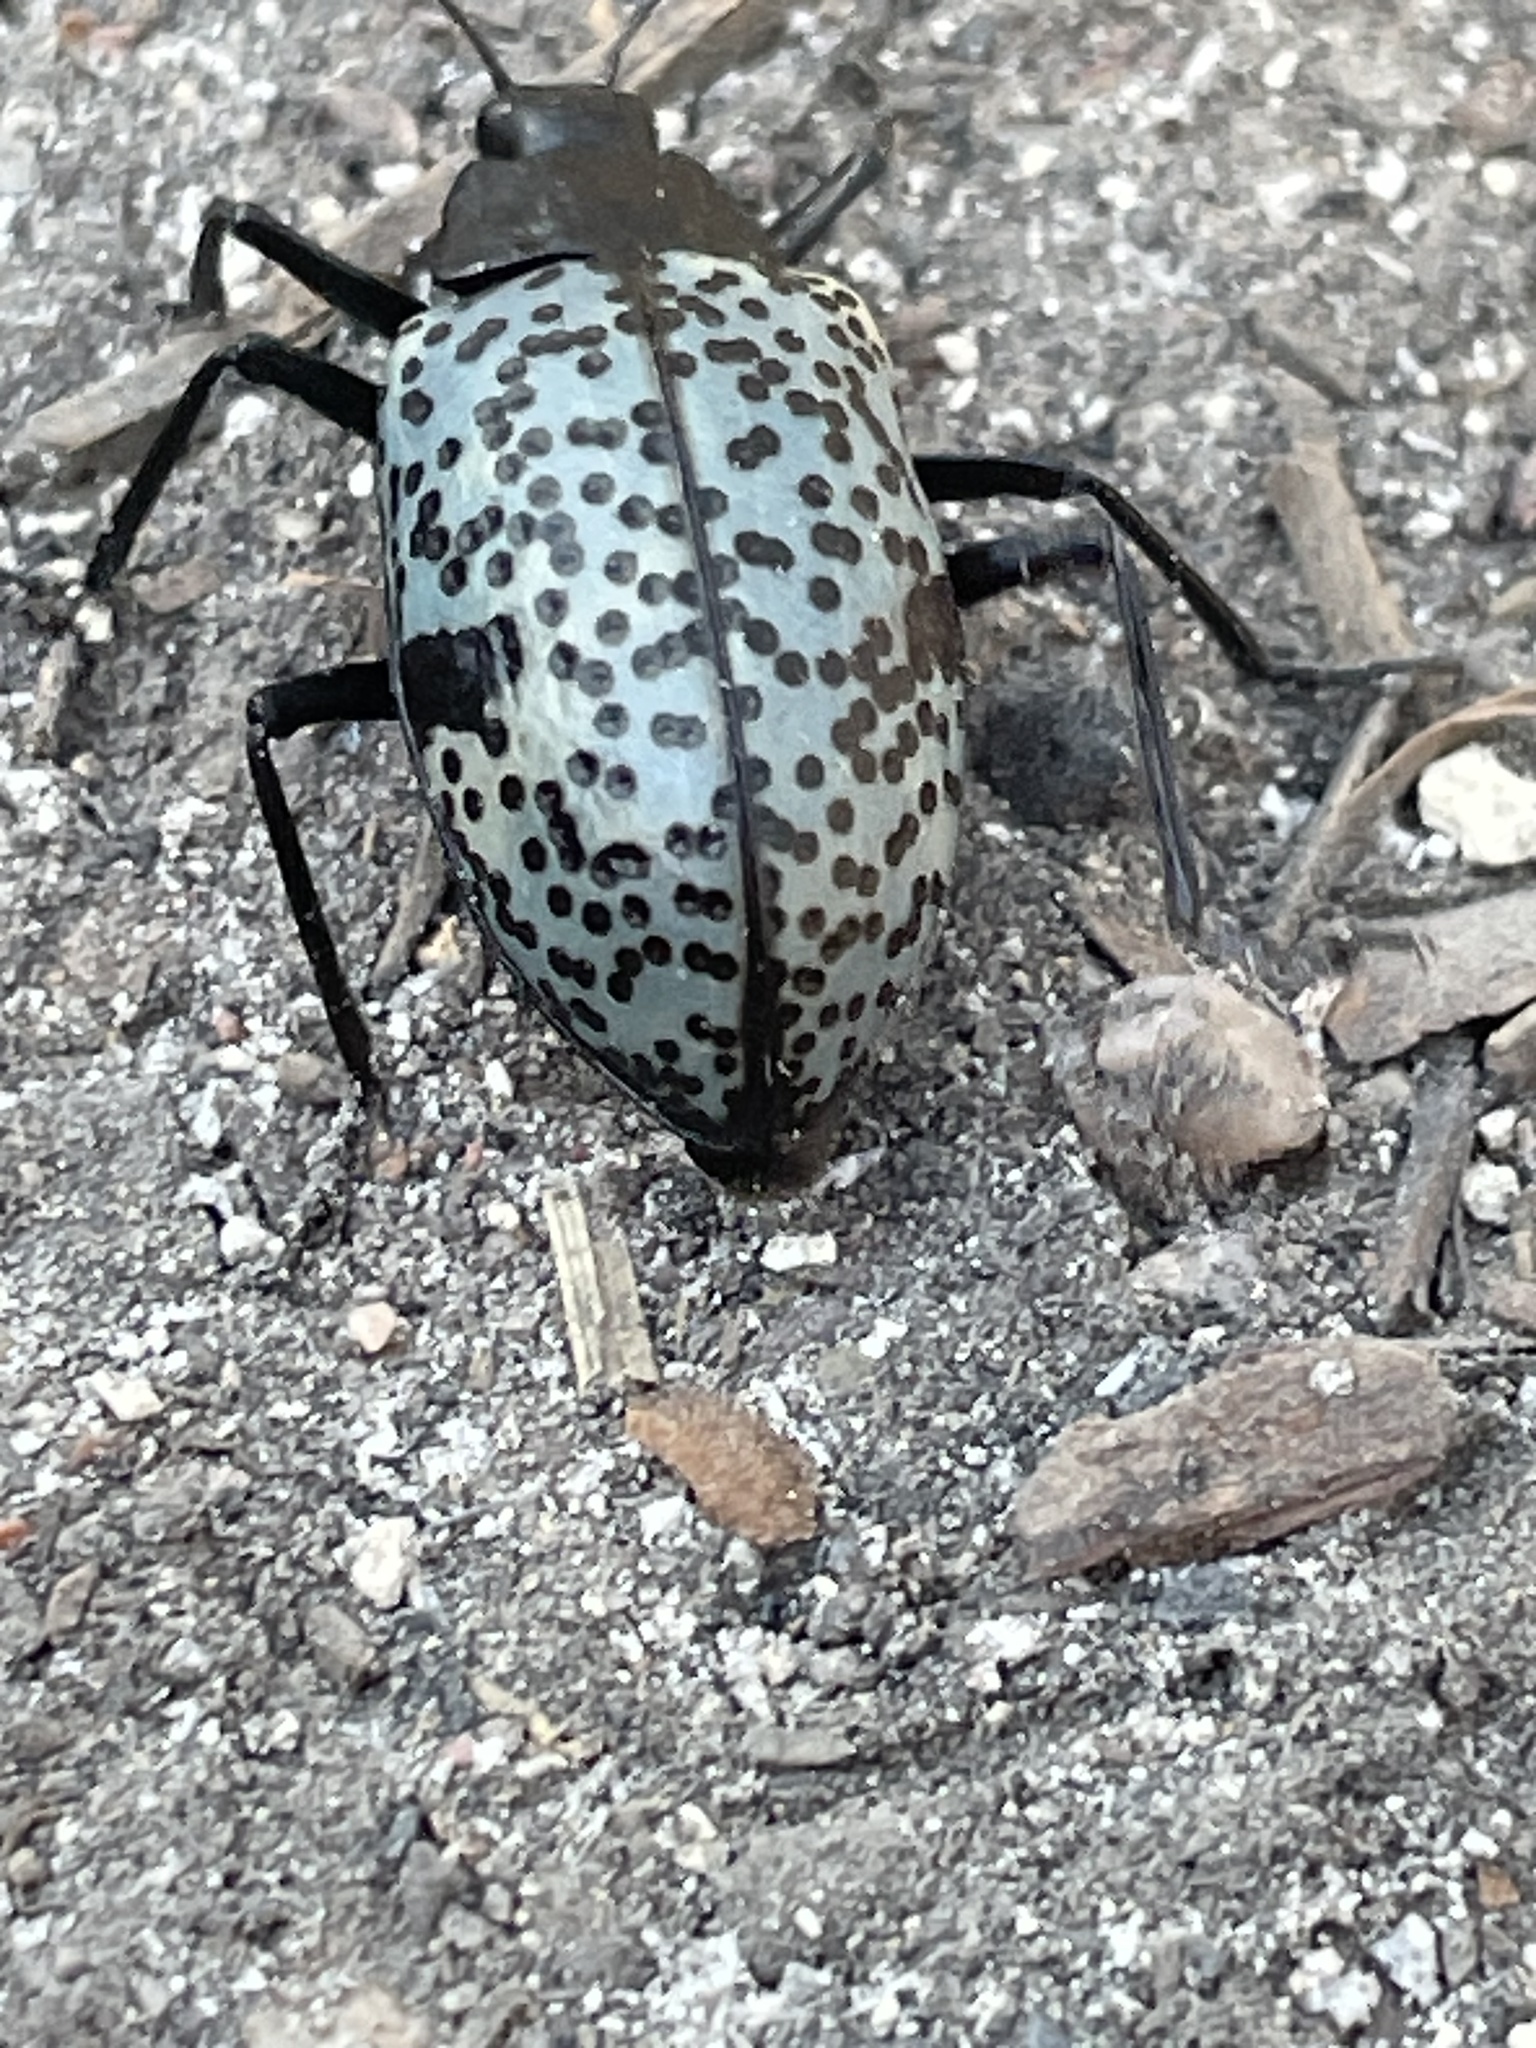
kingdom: Animalia
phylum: Arthropoda
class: Insecta
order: Coleoptera
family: Erotylidae
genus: Gibbifer
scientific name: Gibbifer californicus
